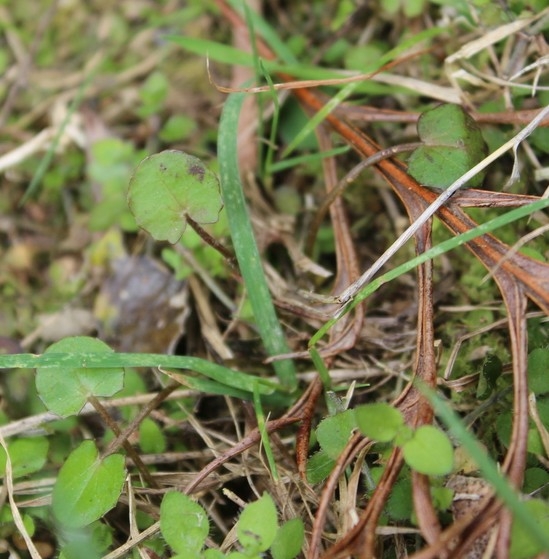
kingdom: Plantae
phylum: Tracheophyta
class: Magnoliopsida
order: Apiales
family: Apiaceae
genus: Centella
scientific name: Centella uniflora
